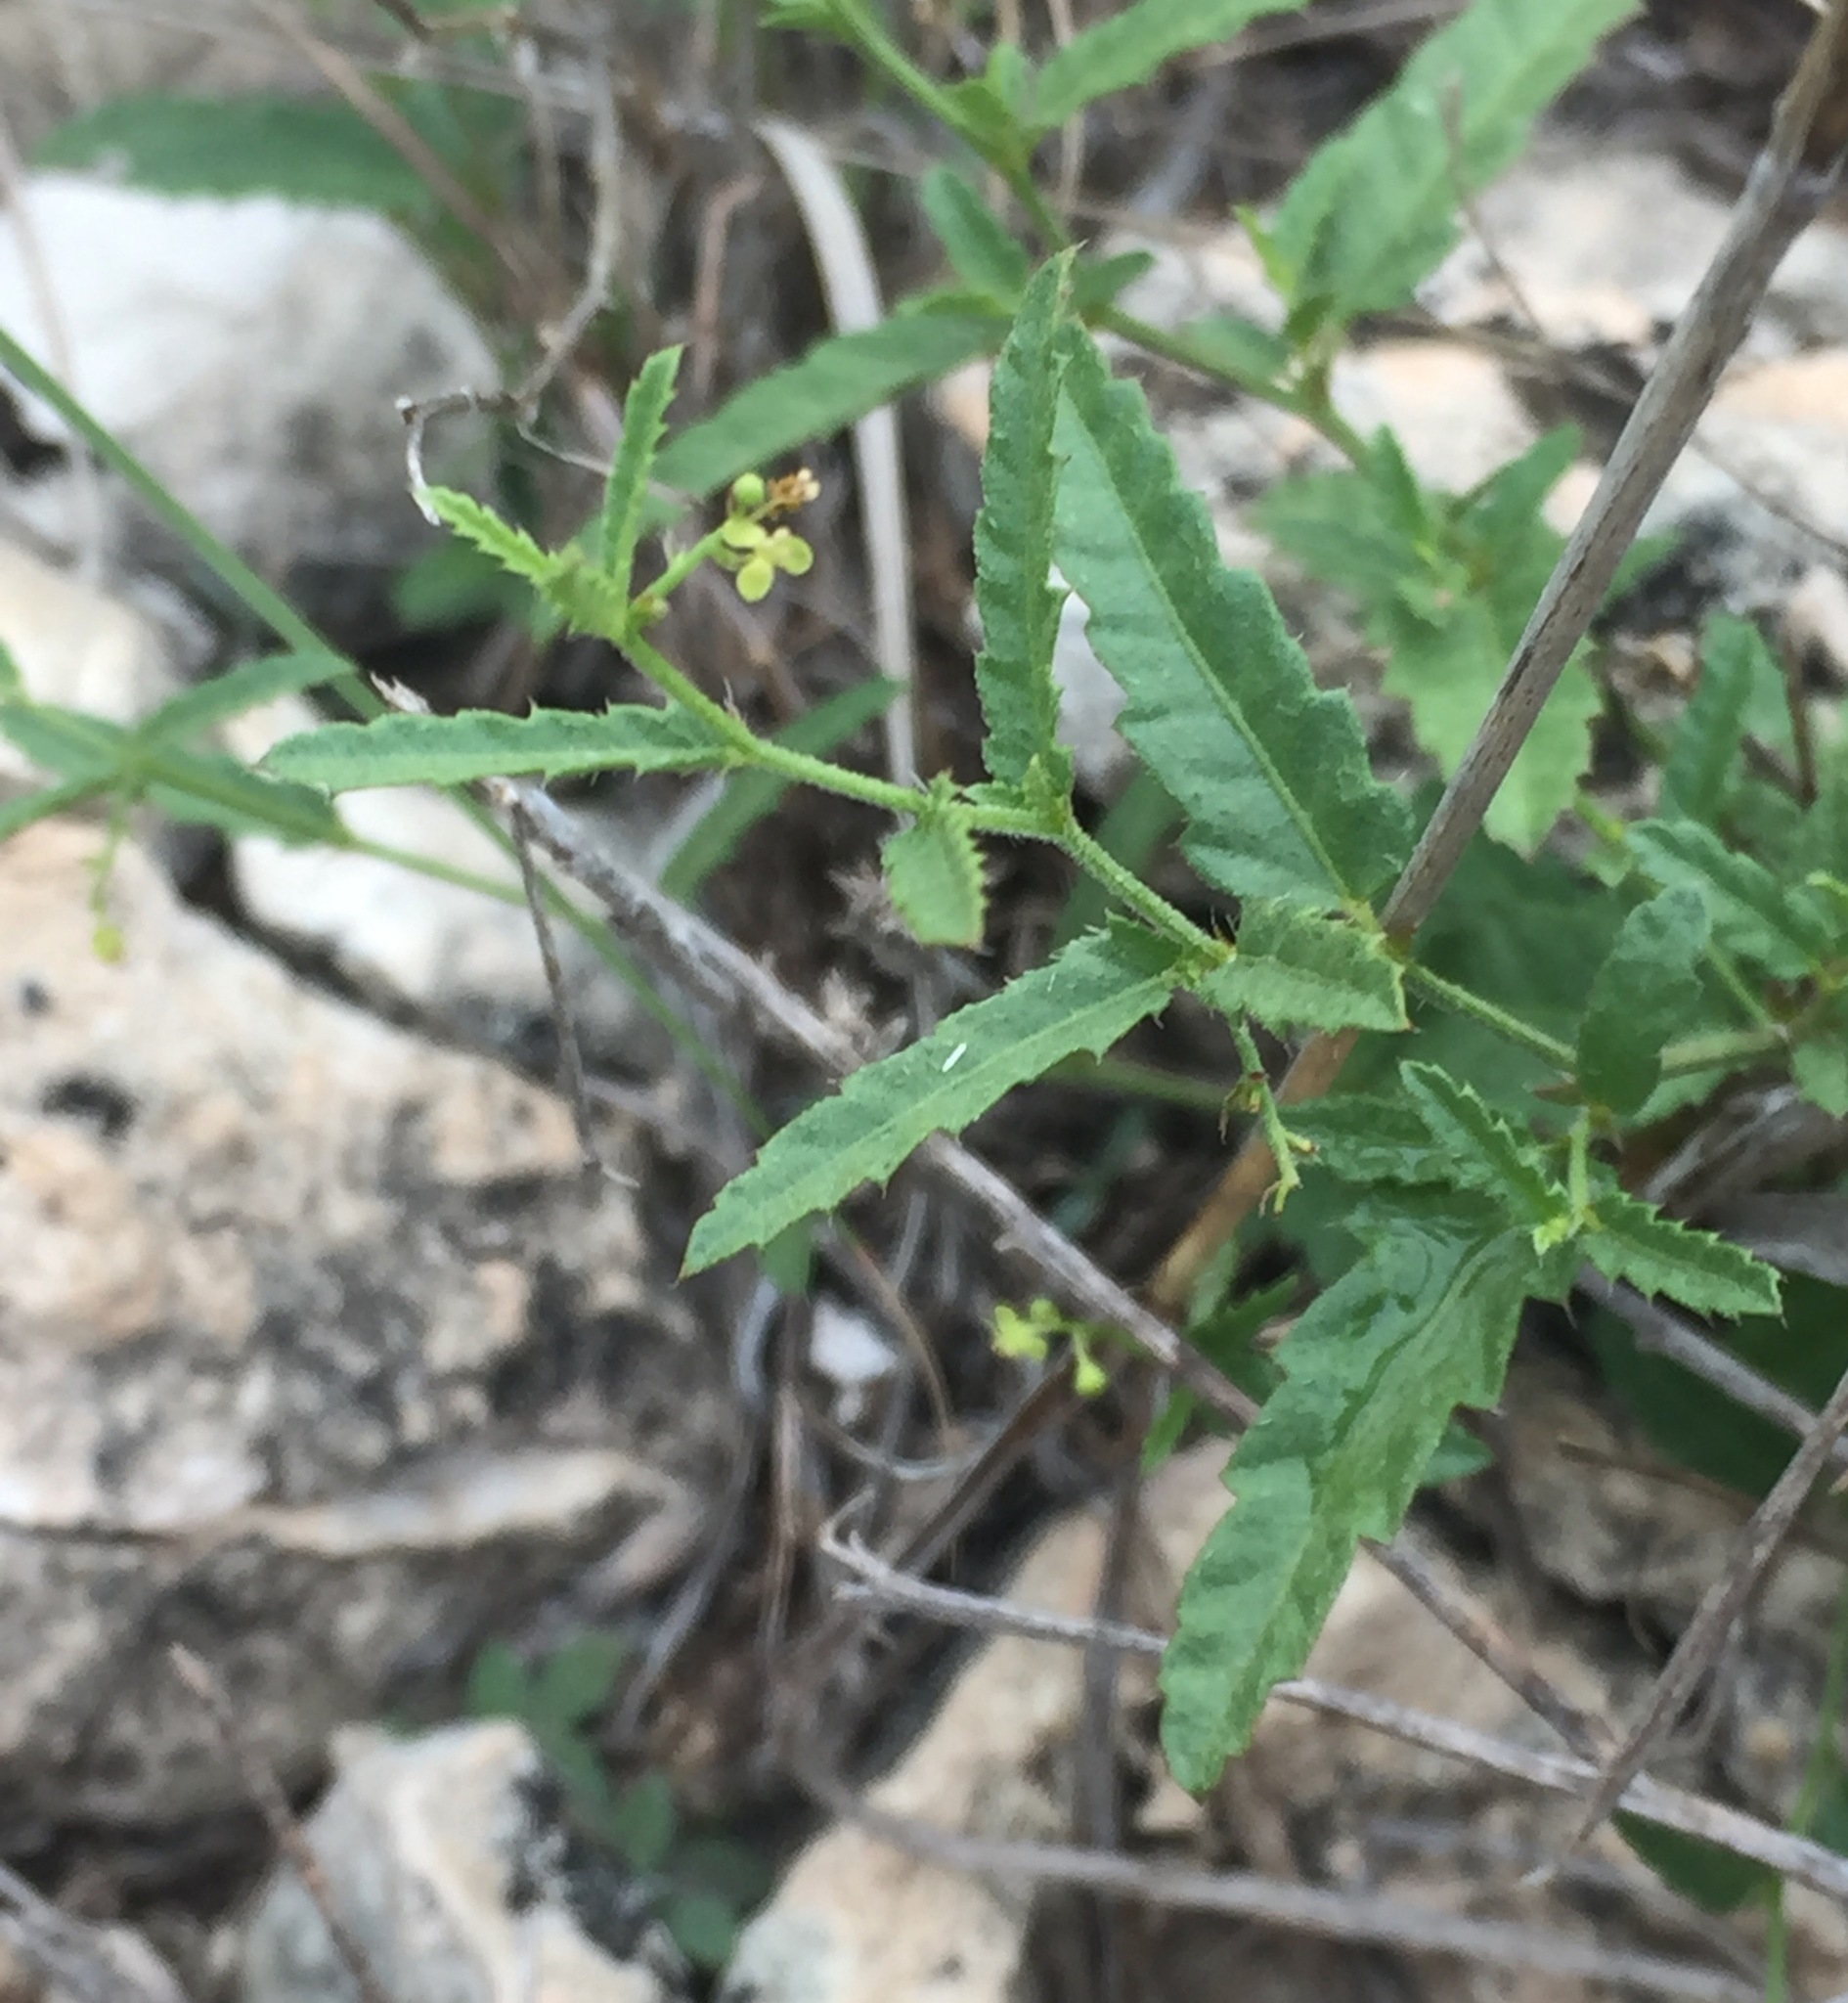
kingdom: Plantae
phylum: Tracheophyta
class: Magnoliopsida
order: Malpighiales
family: Euphorbiaceae
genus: Tragia
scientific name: Tragia ramosa
